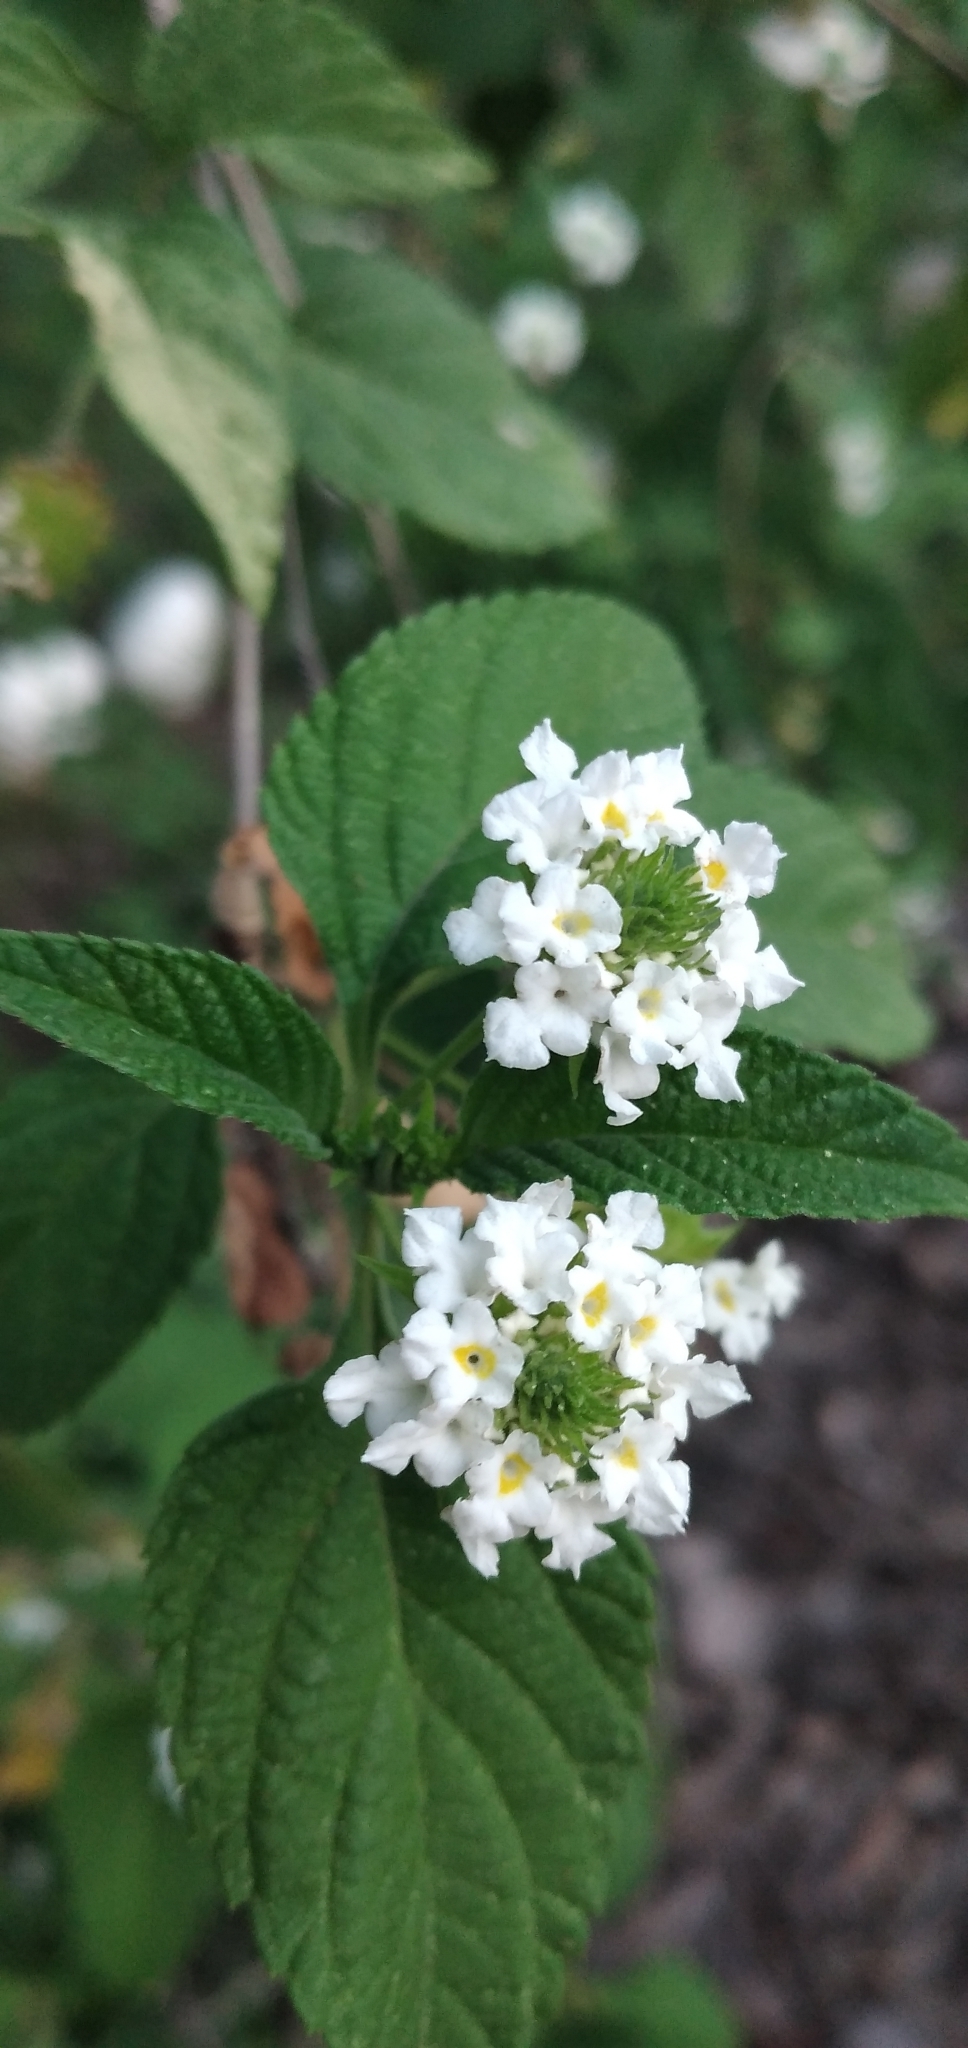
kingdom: Plantae
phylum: Tracheophyta
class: Magnoliopsida
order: Lamiales
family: Verbenaceae
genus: Lantana
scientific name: Lantana canescens
